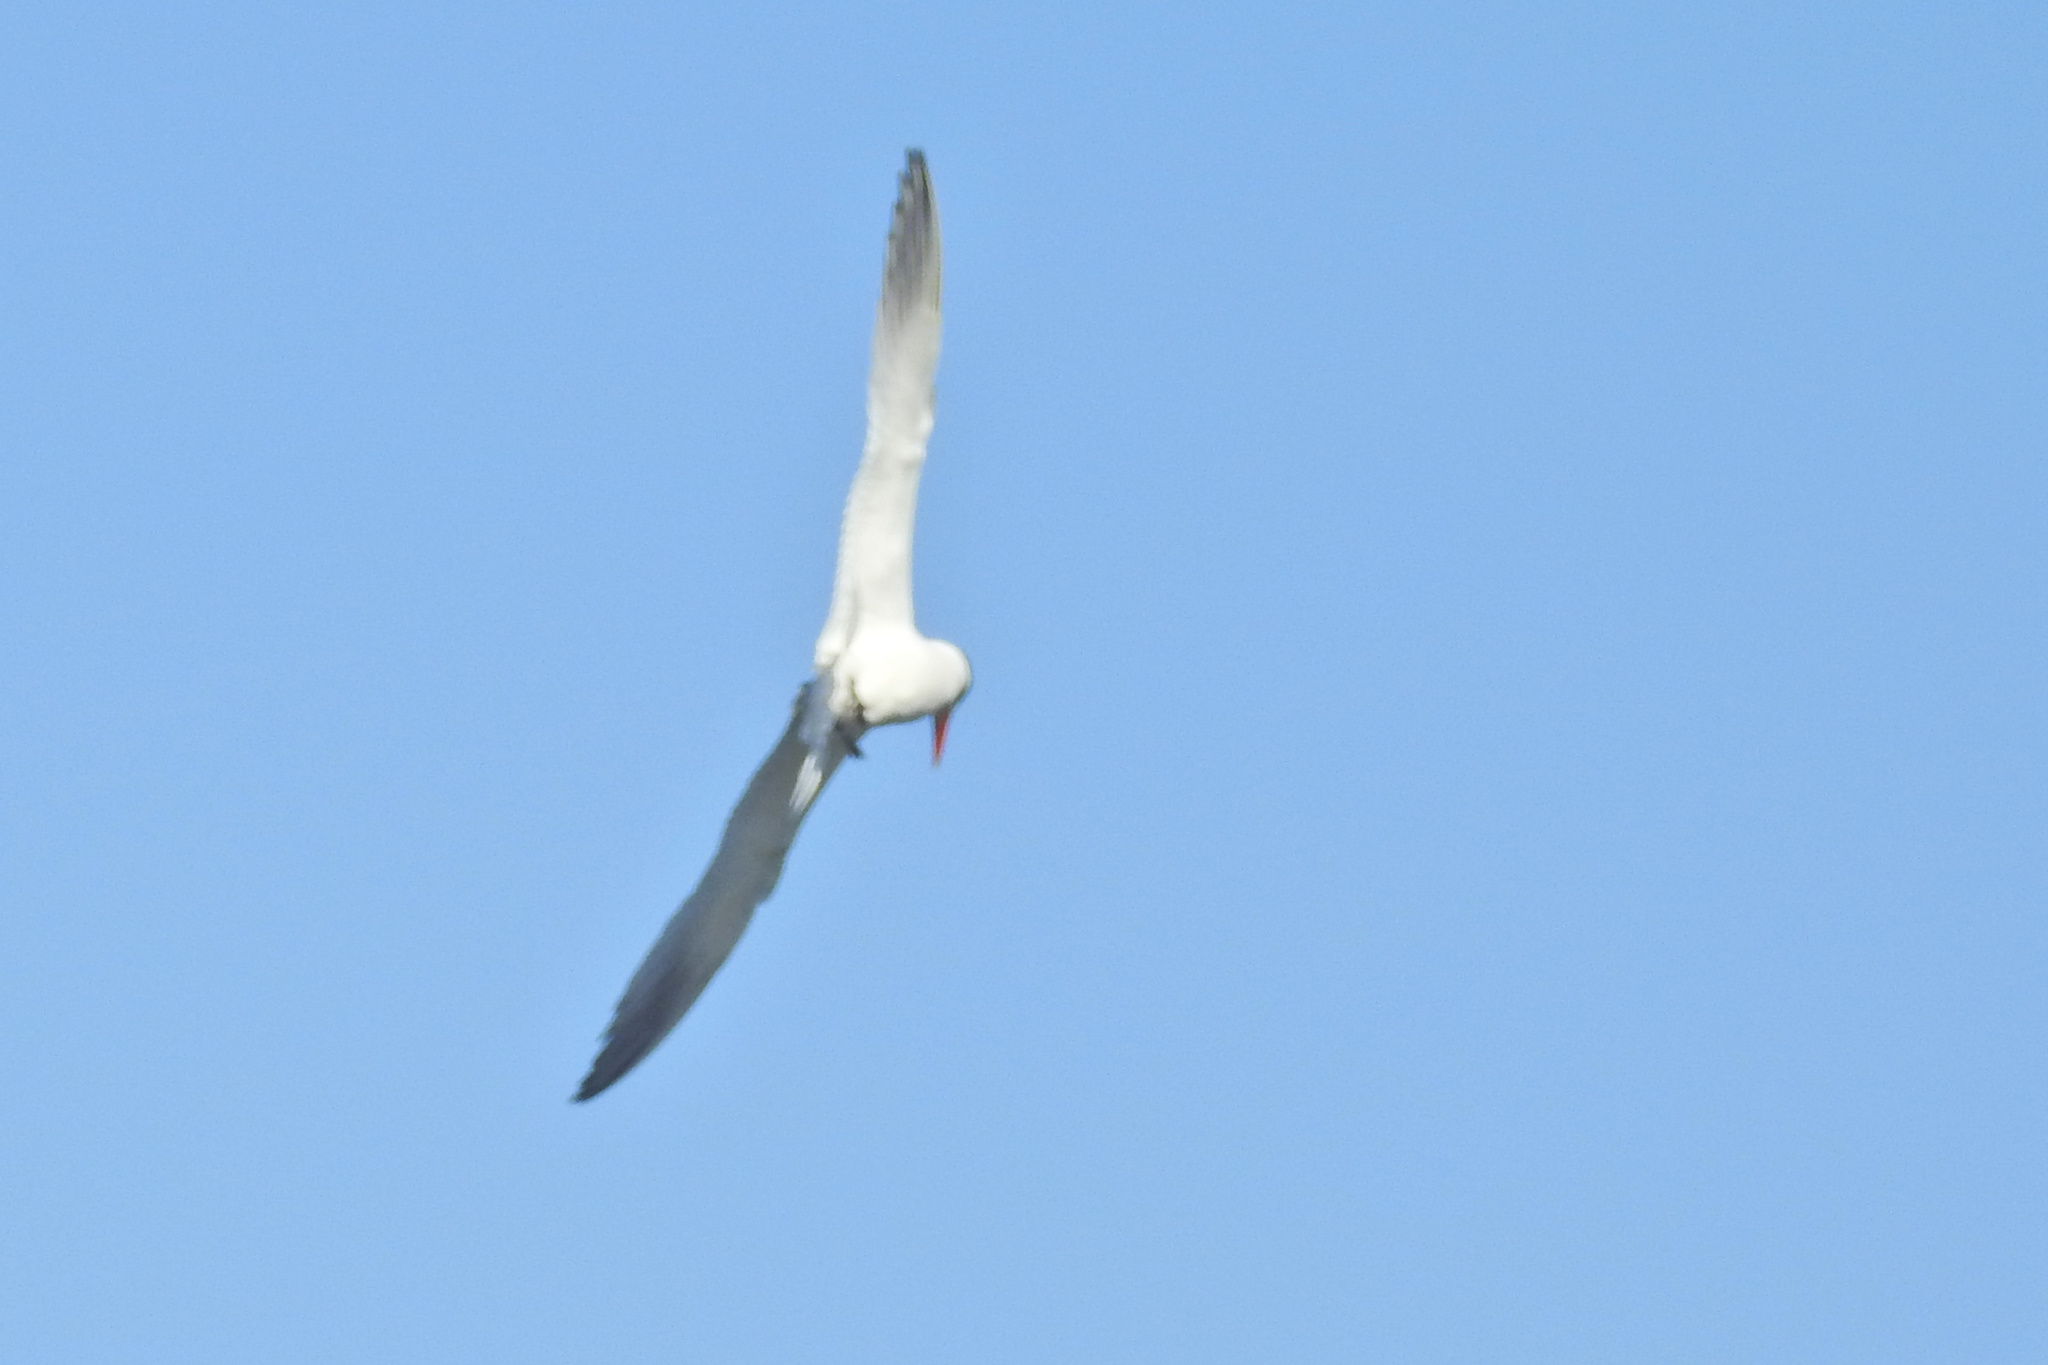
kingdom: Animalia
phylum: Chordata
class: Aves
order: Charadriiformes
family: Laridae
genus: Hydroprogne
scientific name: Hydroprogne caspia
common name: Caspian tern
